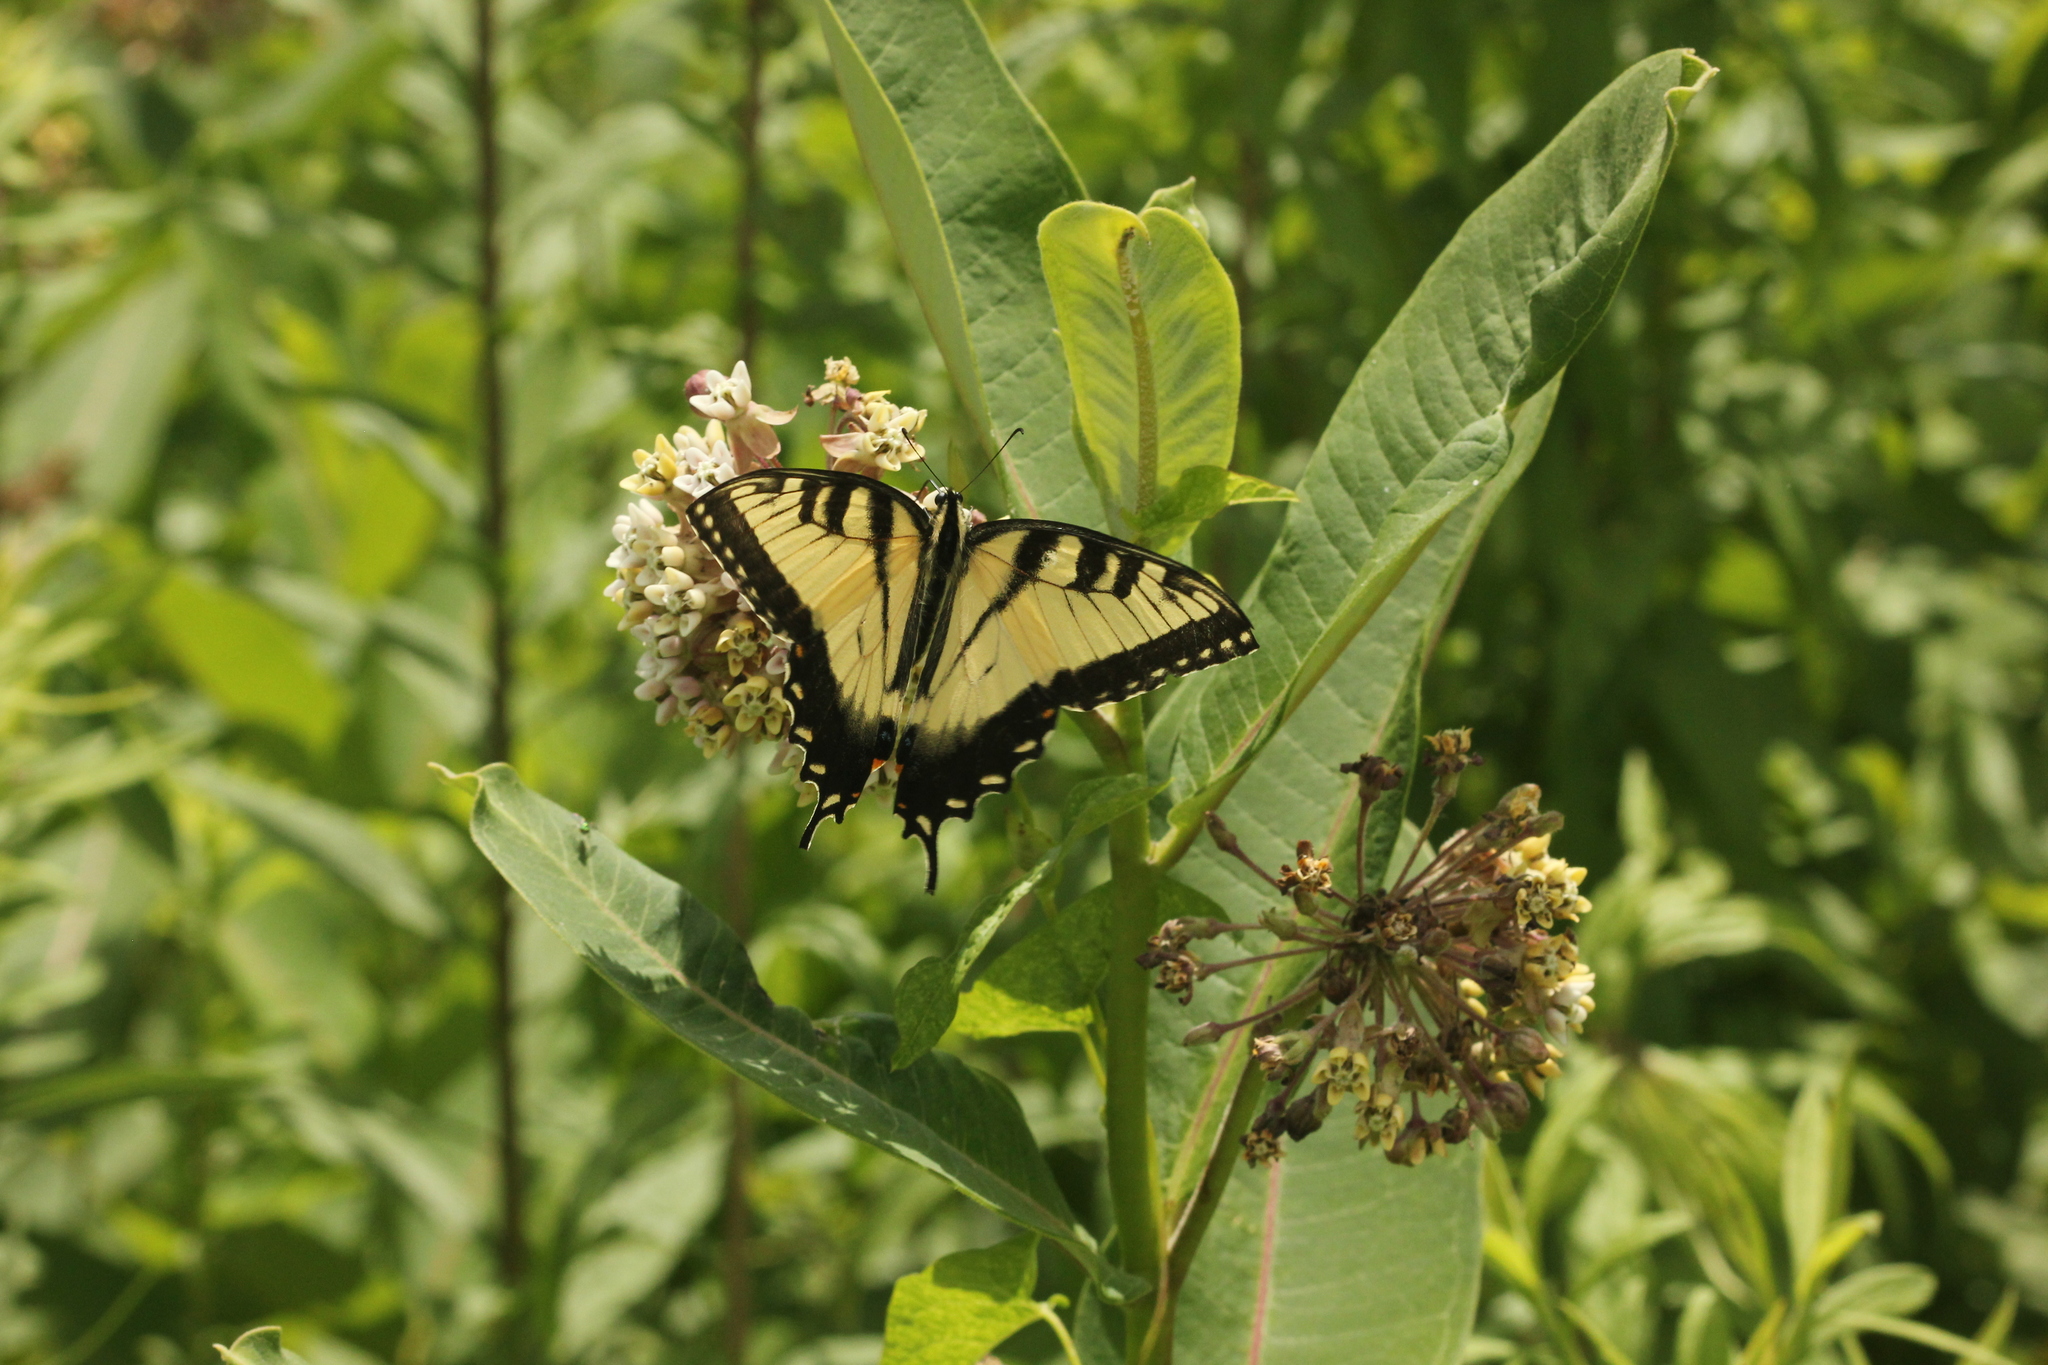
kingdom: Animalia
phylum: Arthropoda
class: Insecta
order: Lepidoptera
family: Papilionidae
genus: Papilio
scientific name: Papilio glaucus
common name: Tiger swallowtail
